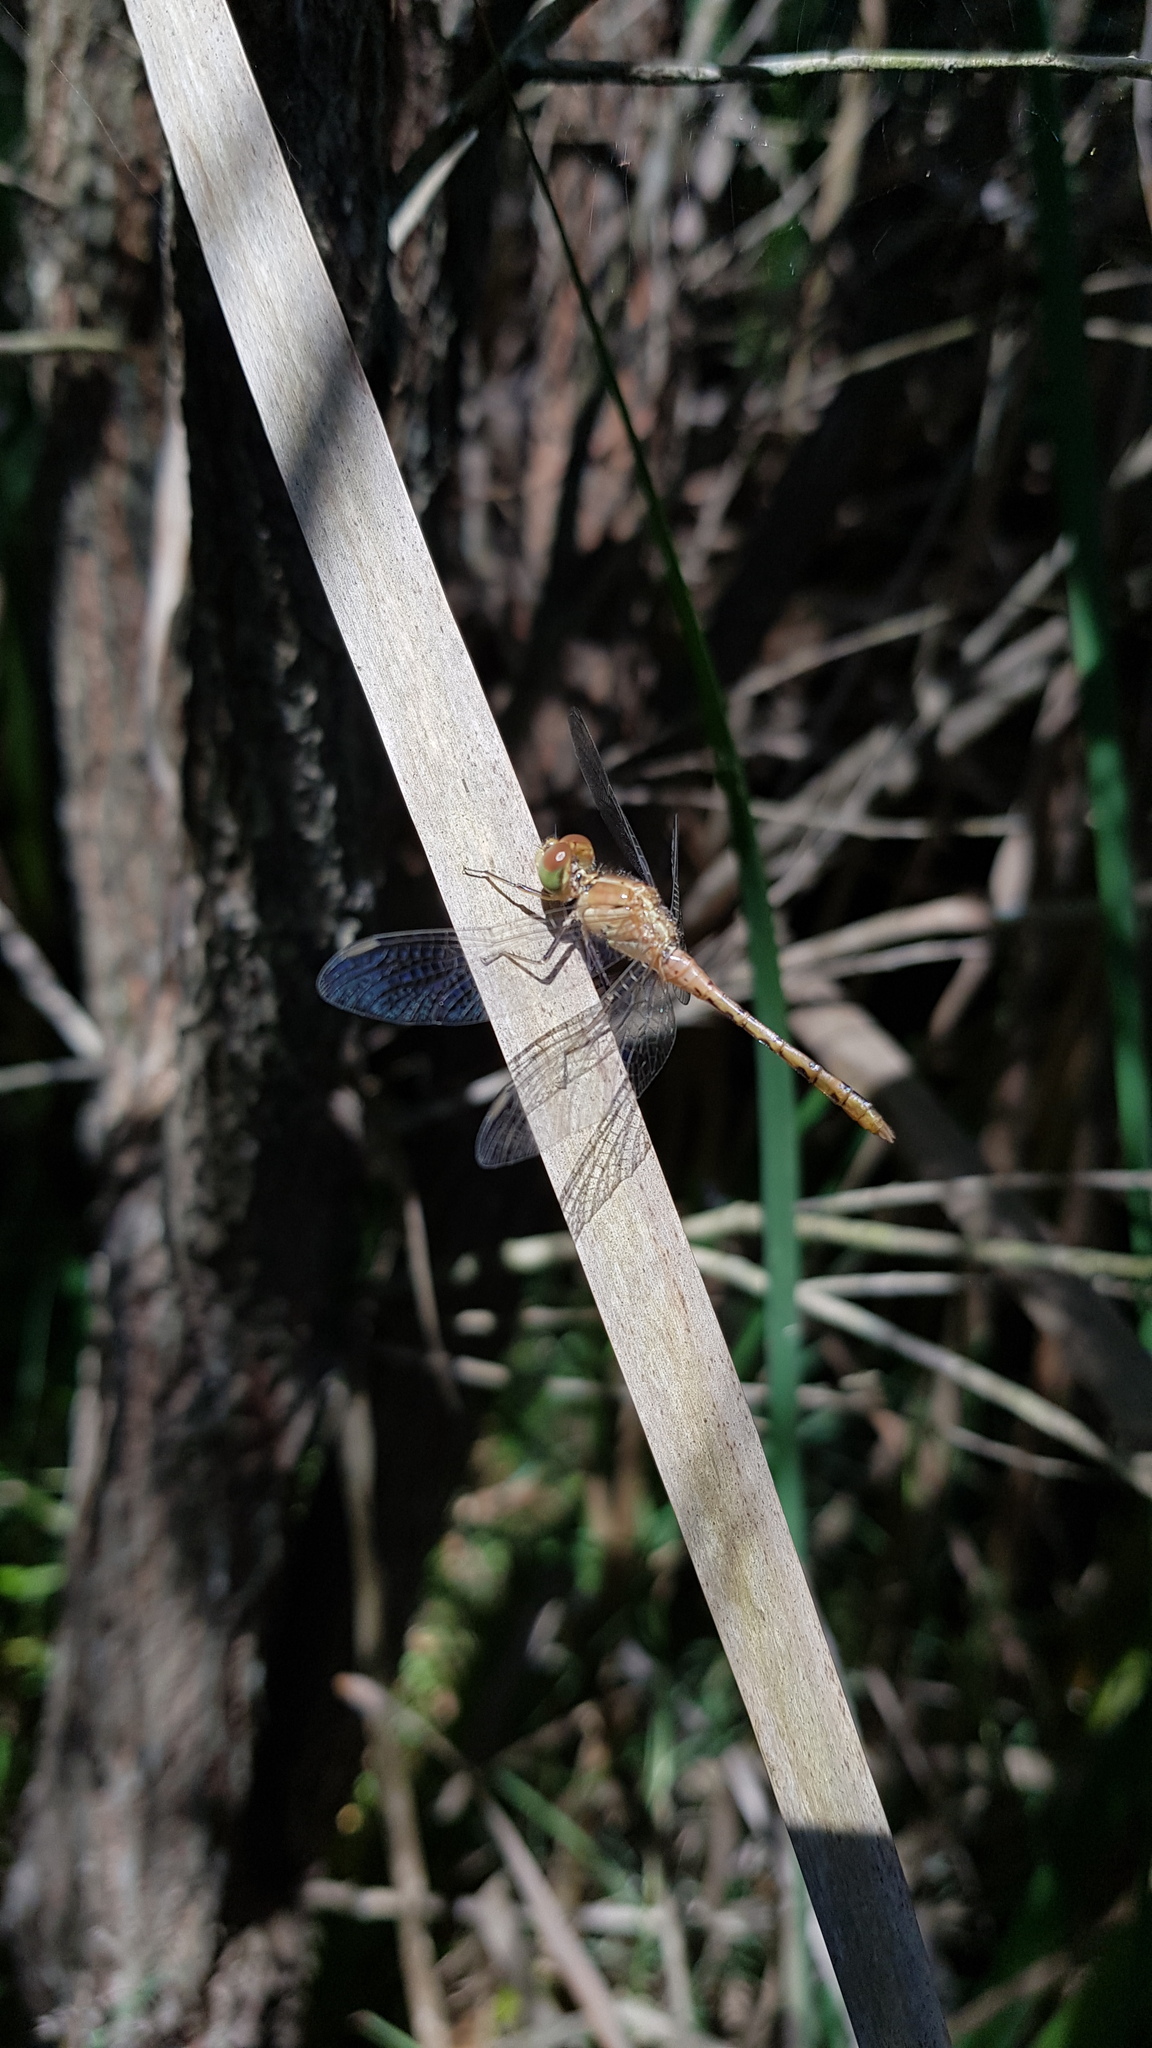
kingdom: Animalia
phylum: Arthropoda
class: Insecta
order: Odonata
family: Libellulidae
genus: Diplacodes
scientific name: Diplacodes bipunctata
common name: Red percher dragonfly
